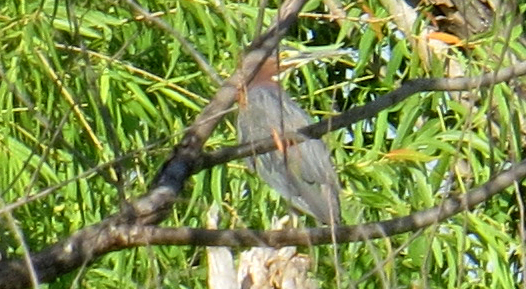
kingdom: Animalia
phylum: Chordata
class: Aves
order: Pelecaniformes
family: Ardeidae
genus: Butorides
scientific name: Butorides virescens
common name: Green heron
